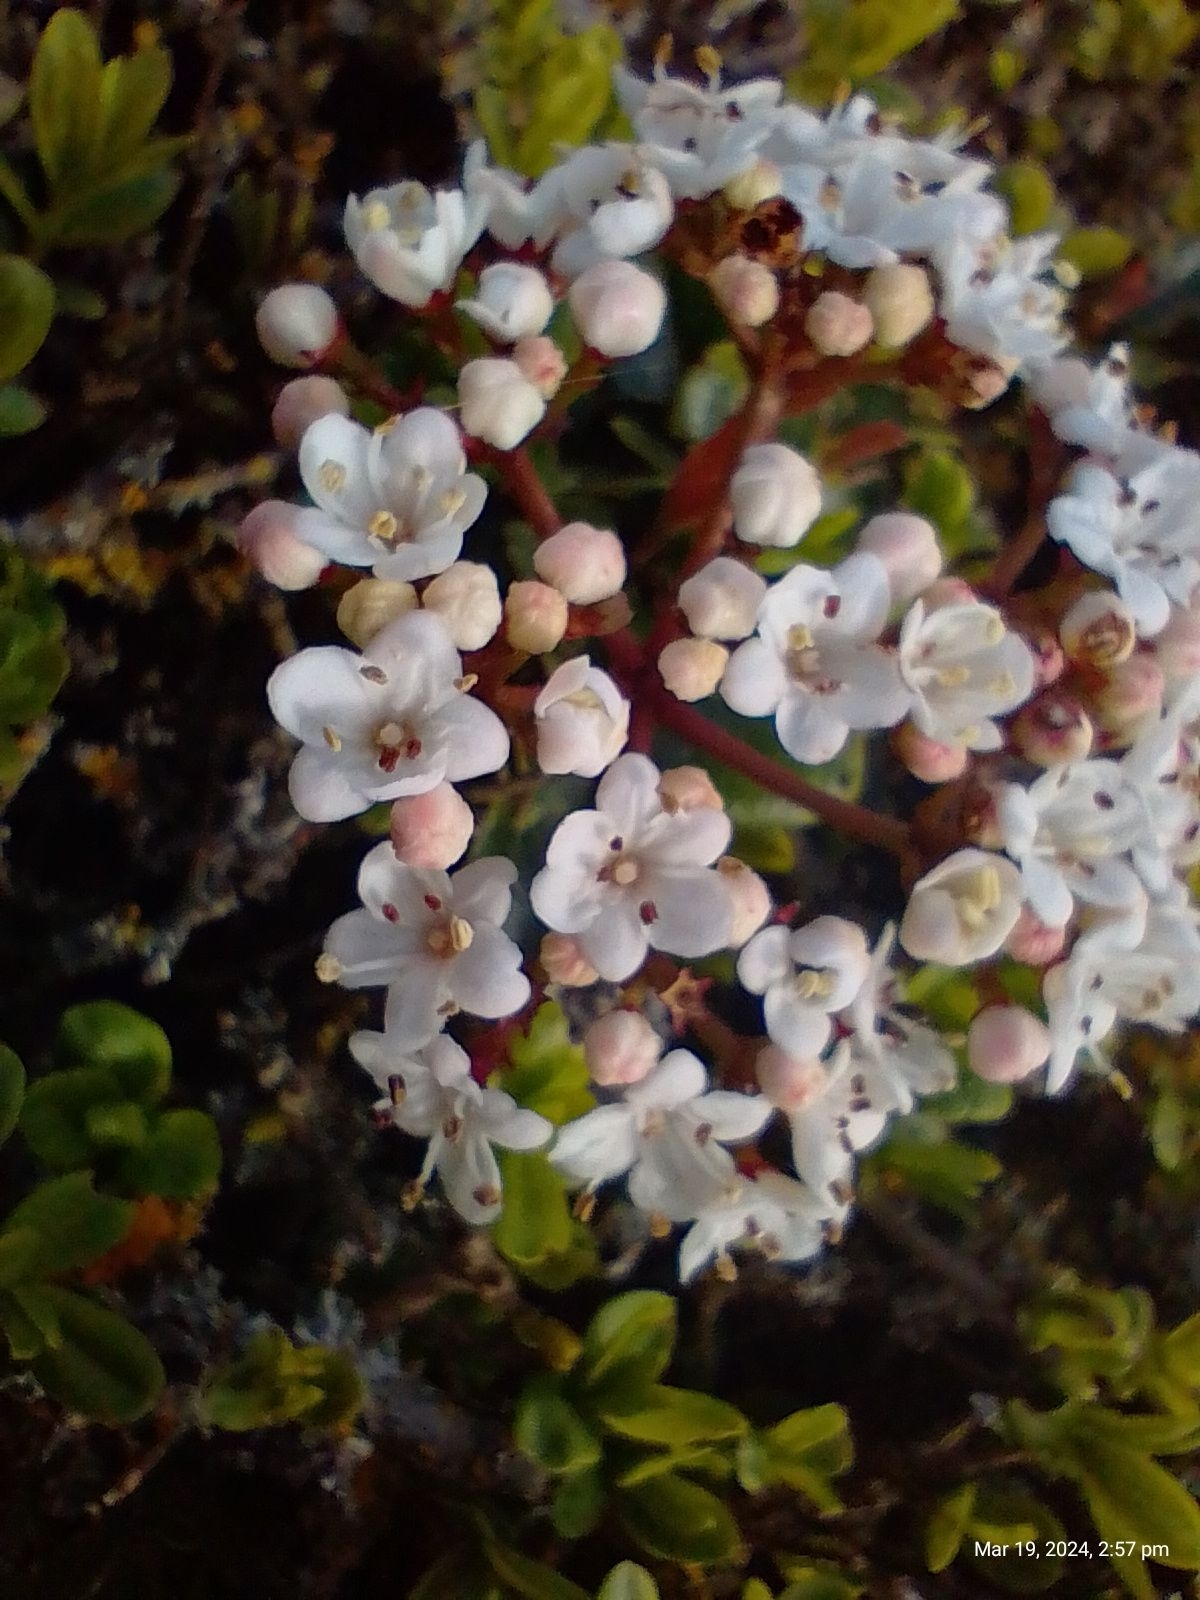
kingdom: Plantae
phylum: Tracheophyta
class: Magnoliopsida
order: Dipsacales
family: Viburnaceae
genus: Viburnum
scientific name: Viburnum tinus
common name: Laurustinus
